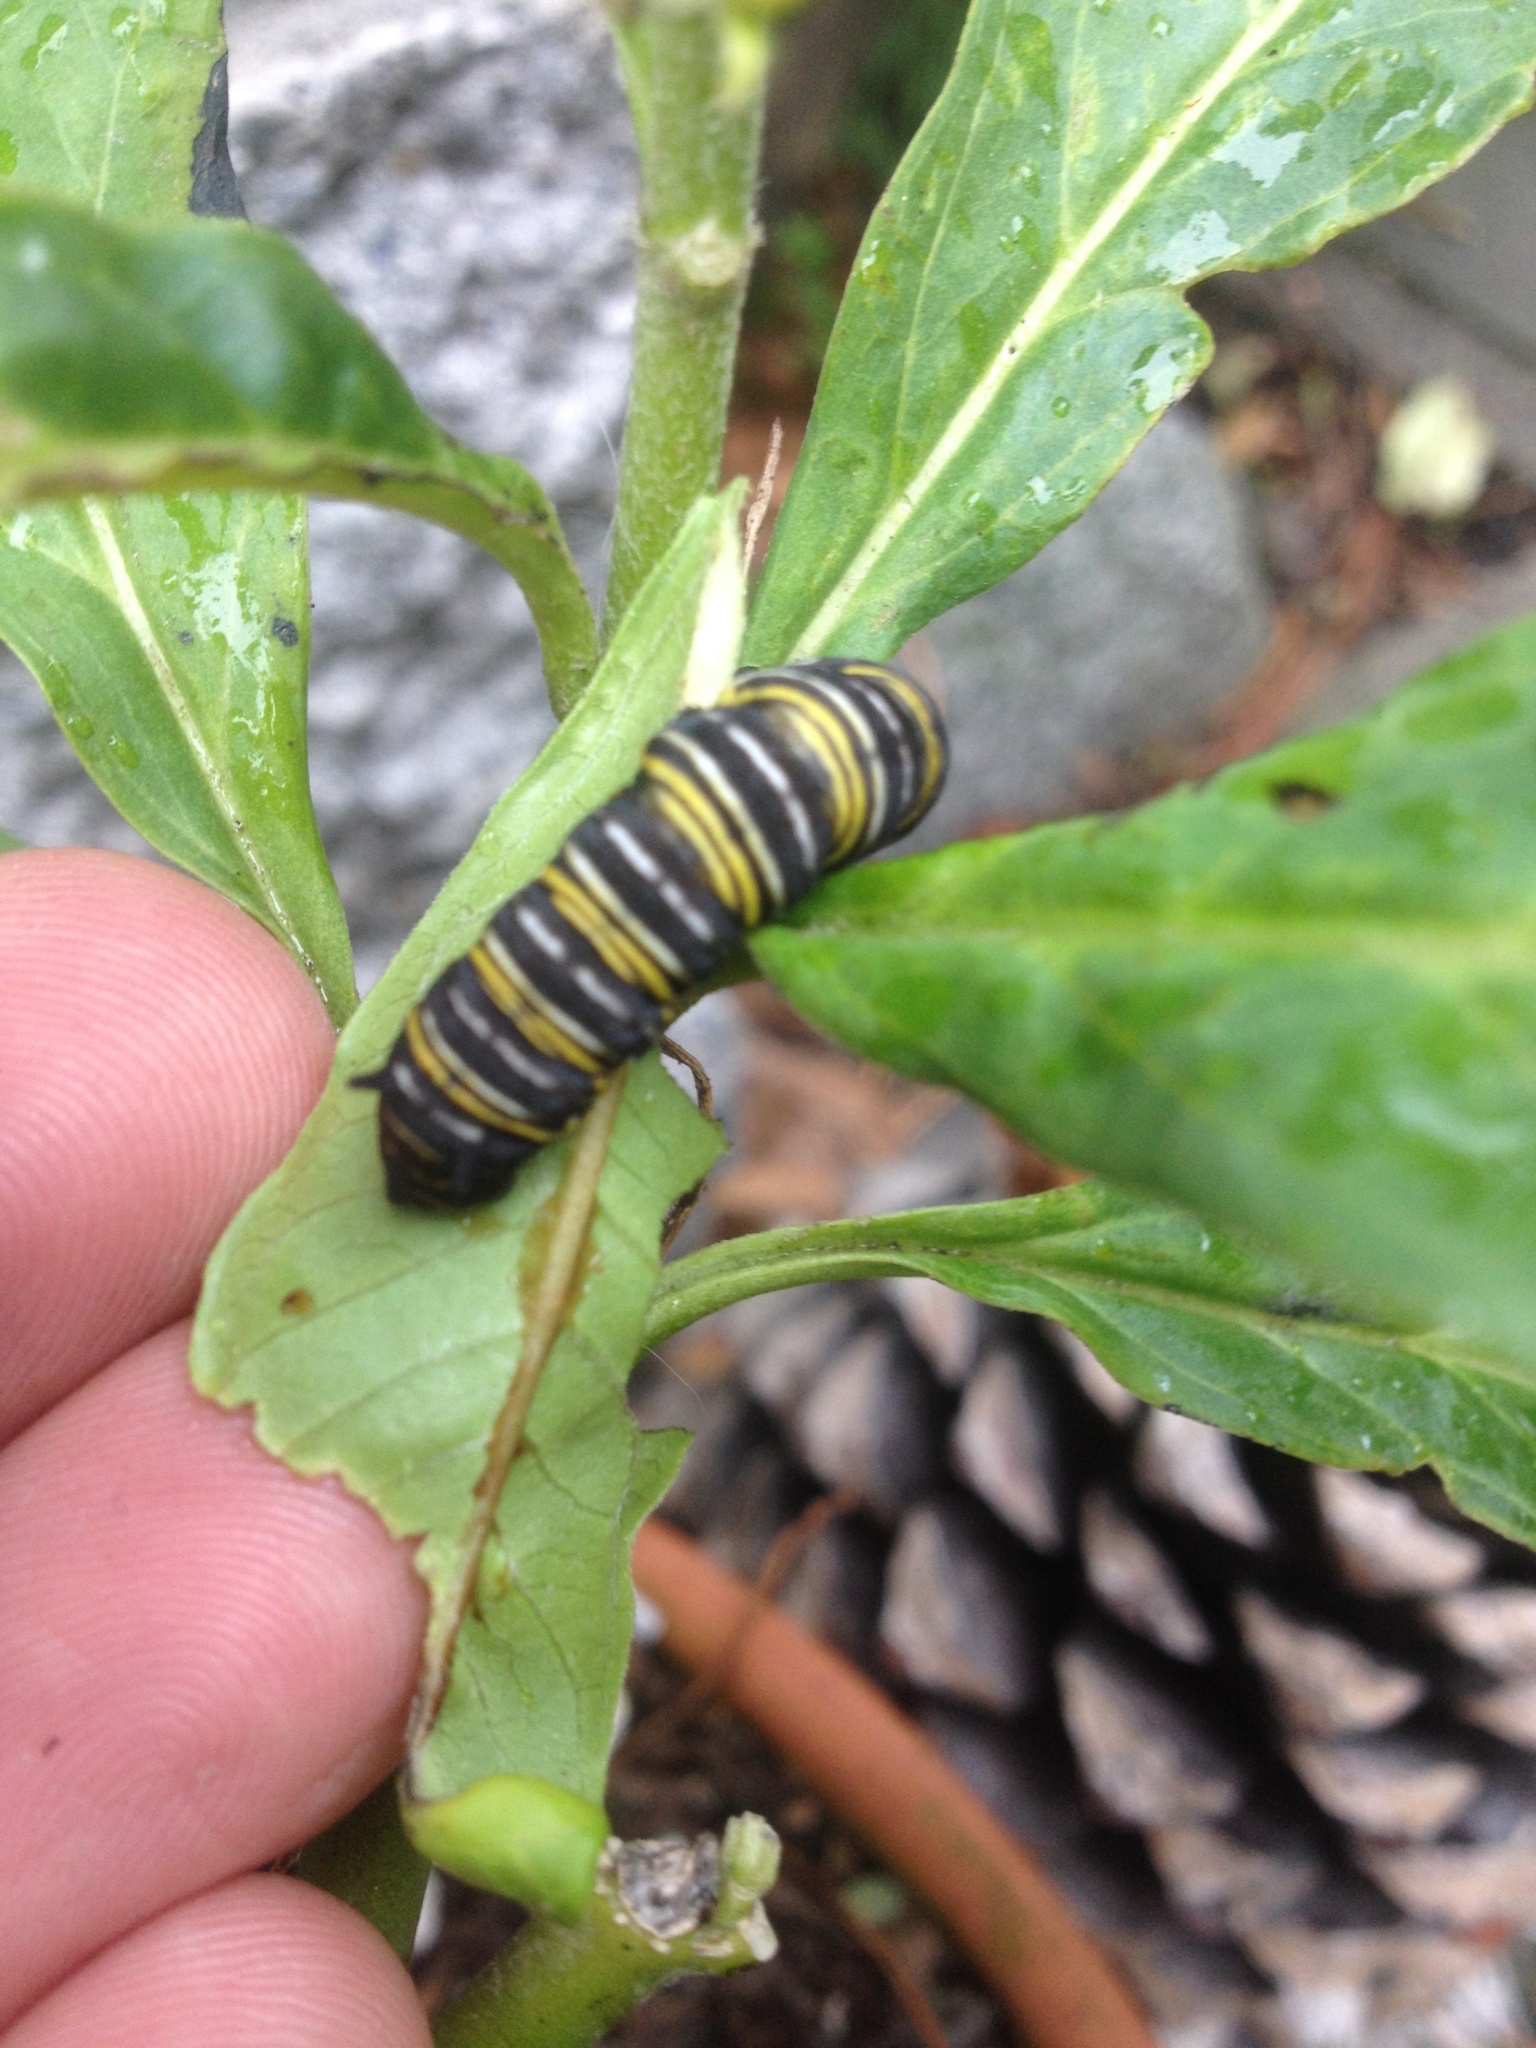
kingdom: Animalia
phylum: Arthropoda
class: Insecta
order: Lepidoptera
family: Nymphalidae
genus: Danaus
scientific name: Danaus plexippus
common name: Monarch
